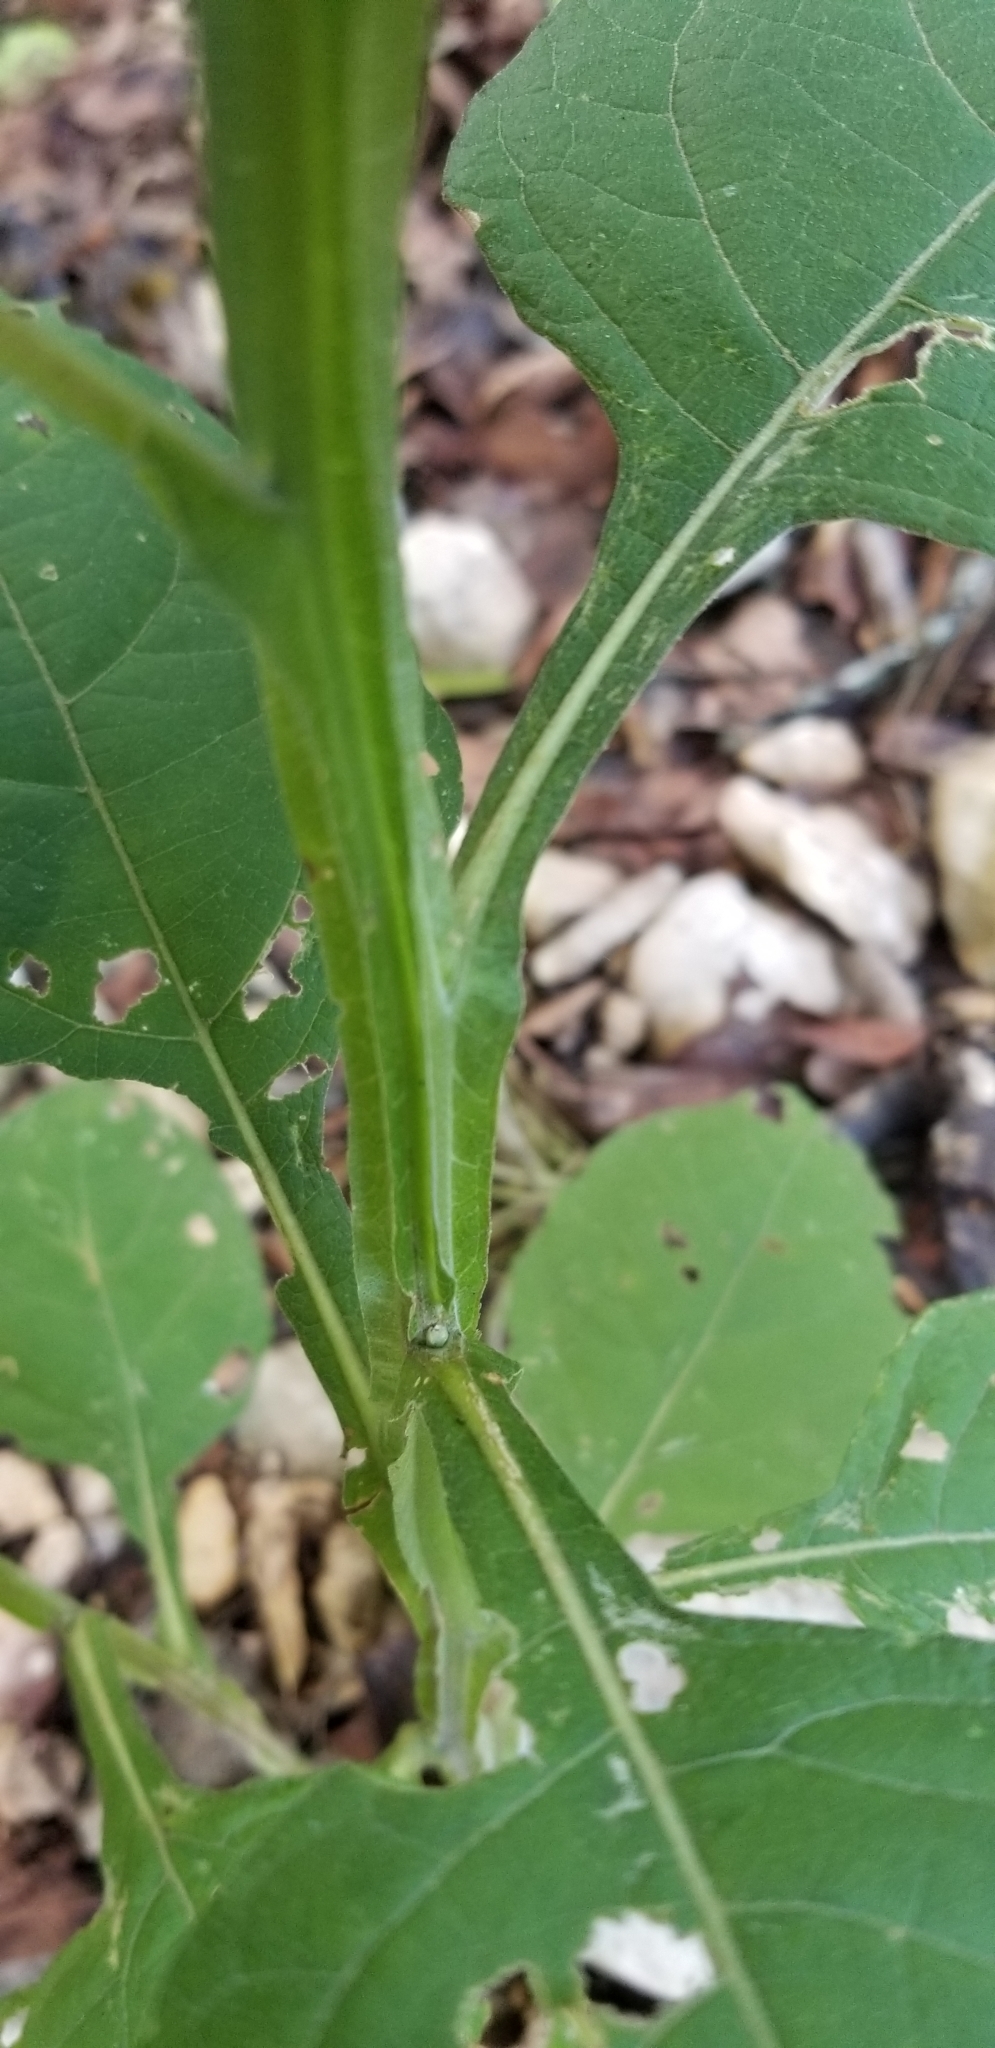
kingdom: Plantae
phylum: Tracheophyta
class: Magnoliopsida
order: Asterales
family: Asteraceae
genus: Verbesina
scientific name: Verbesina virginica
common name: Frostweed
